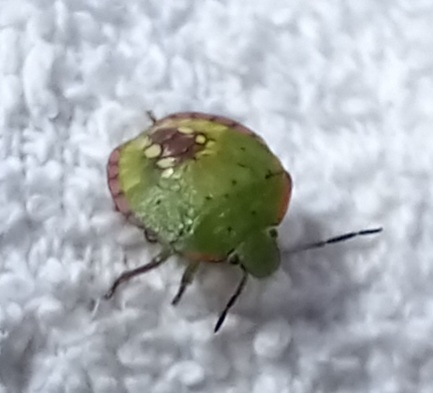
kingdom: Animalia
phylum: Arthropoda
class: Insecta
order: Hemiptera
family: Pentatomidae
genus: Nezara
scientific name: Nezara viridula
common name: Southern green stink bug
